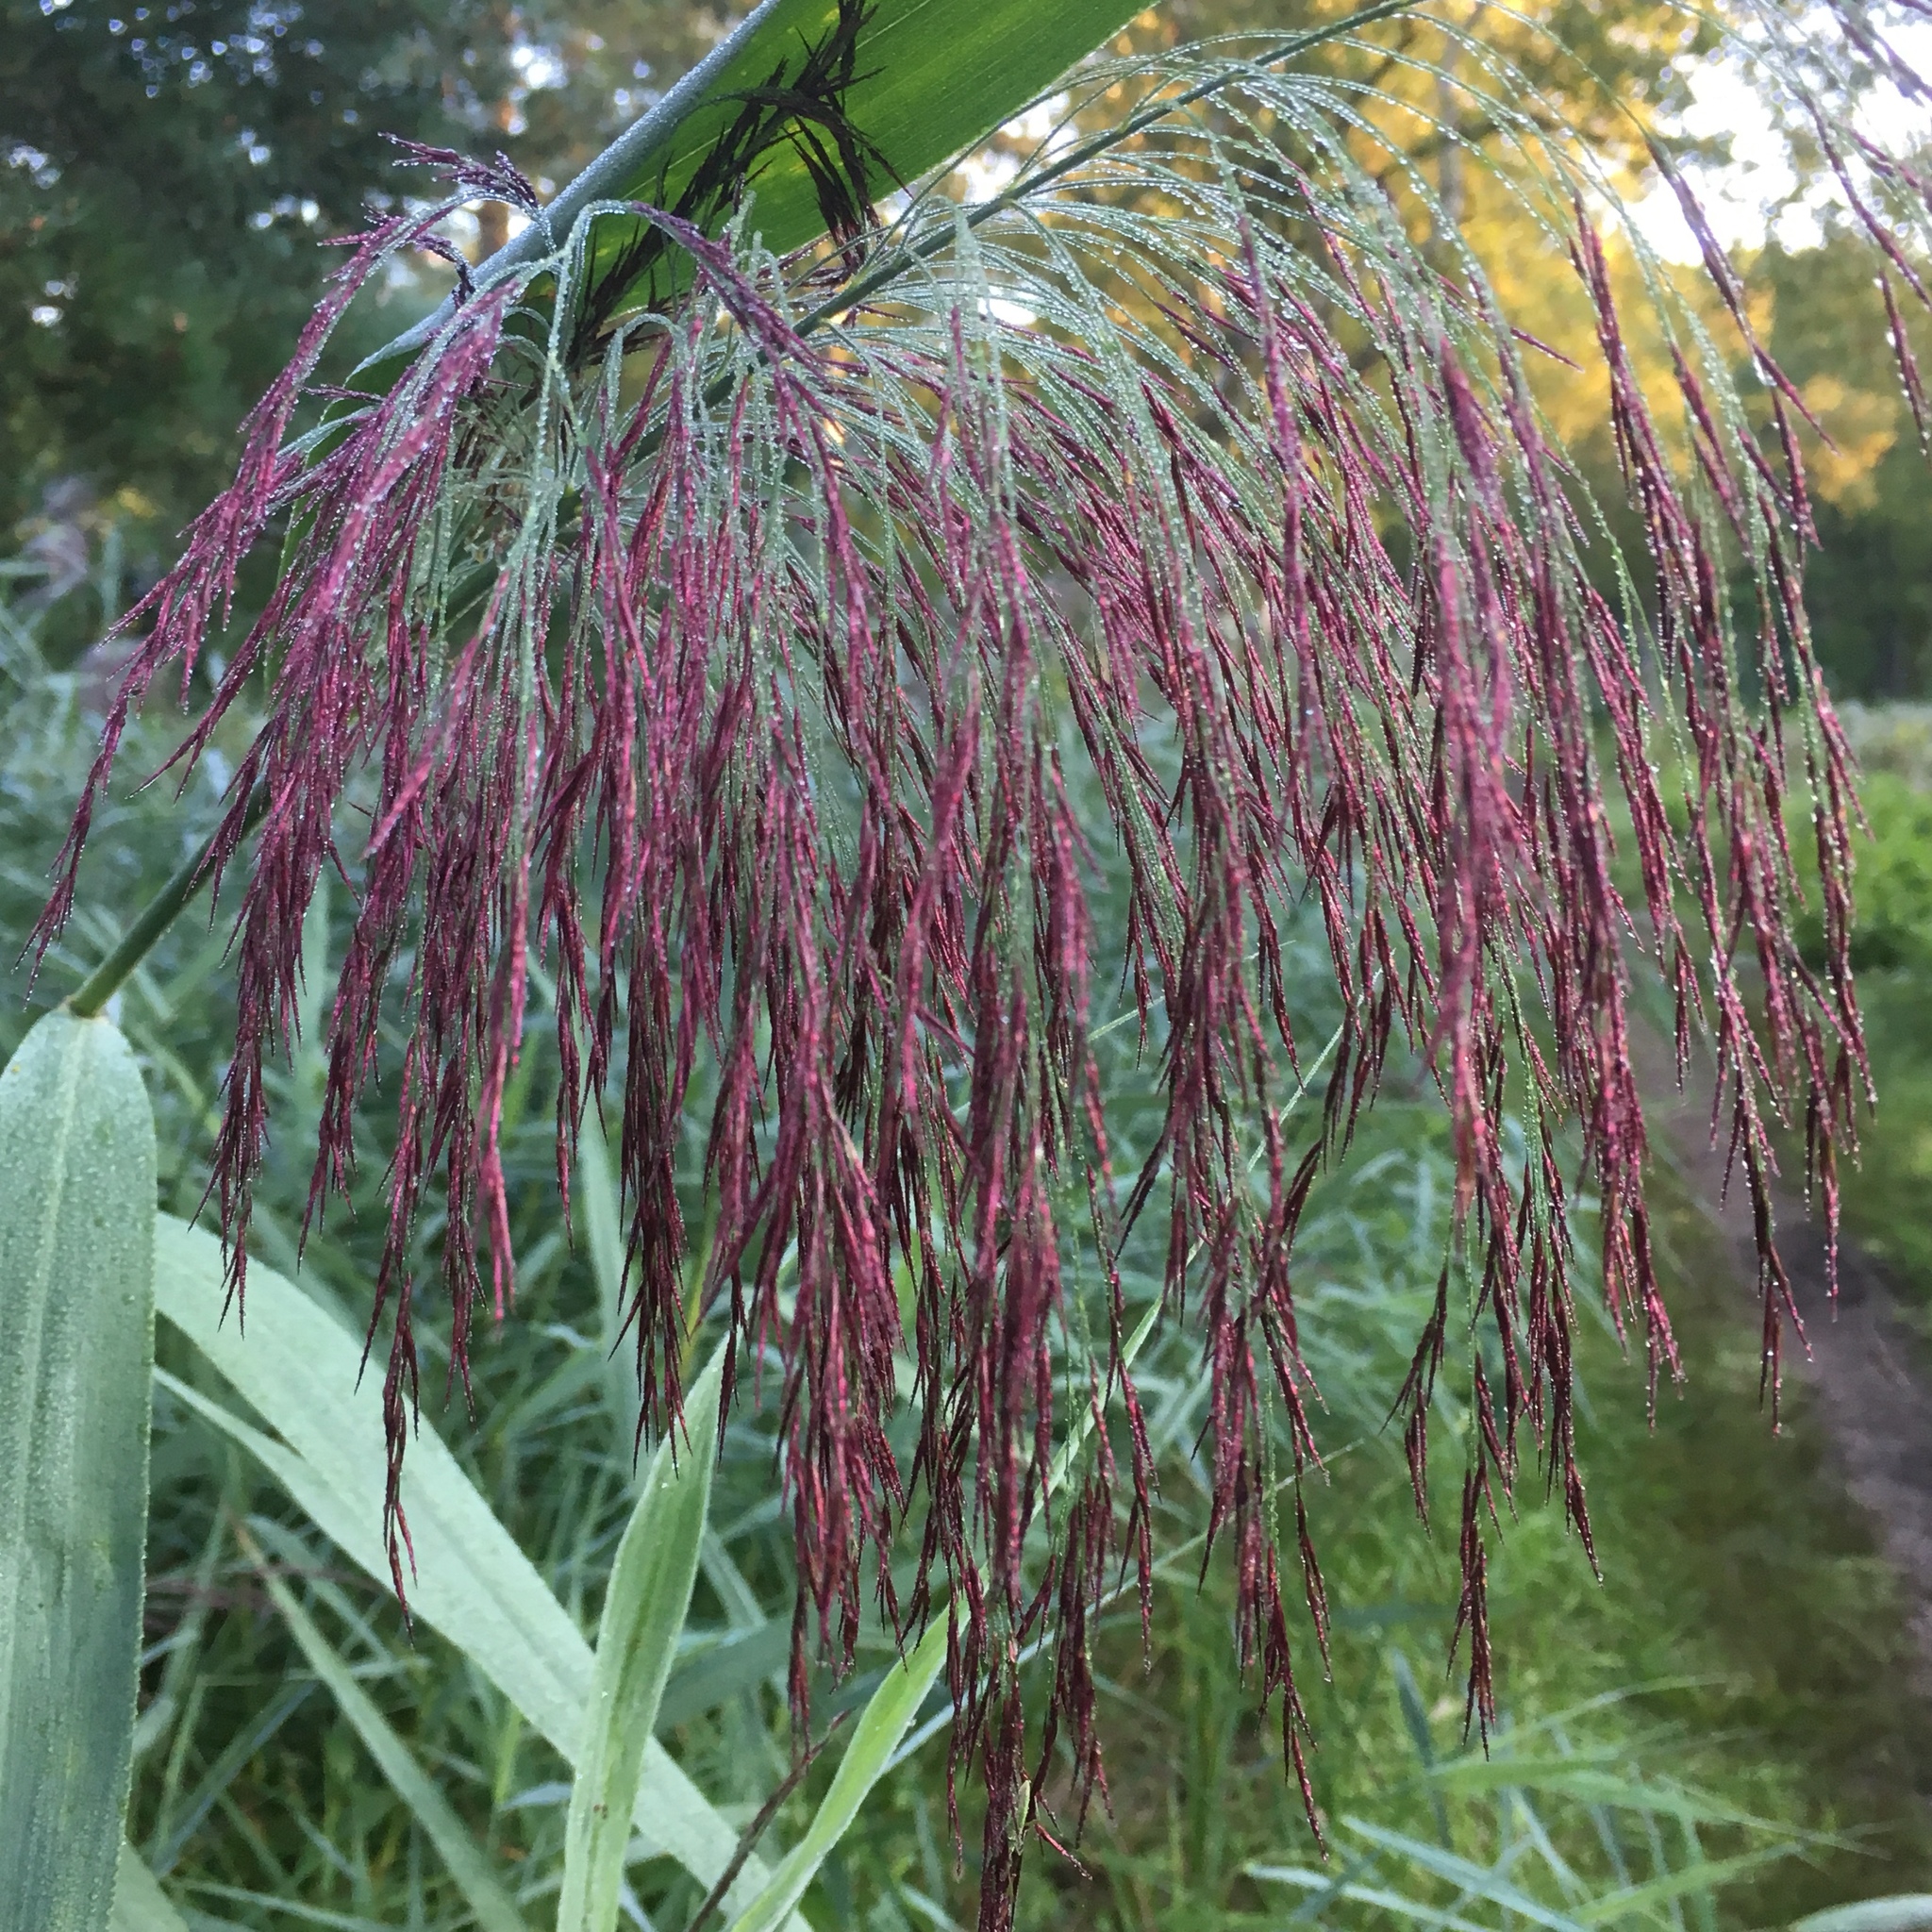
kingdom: Plantae
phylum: Tracheophyta
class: Liliopsida
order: Poales
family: Poaceae
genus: Phragmites
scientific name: Phragmites australis
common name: Common reed
